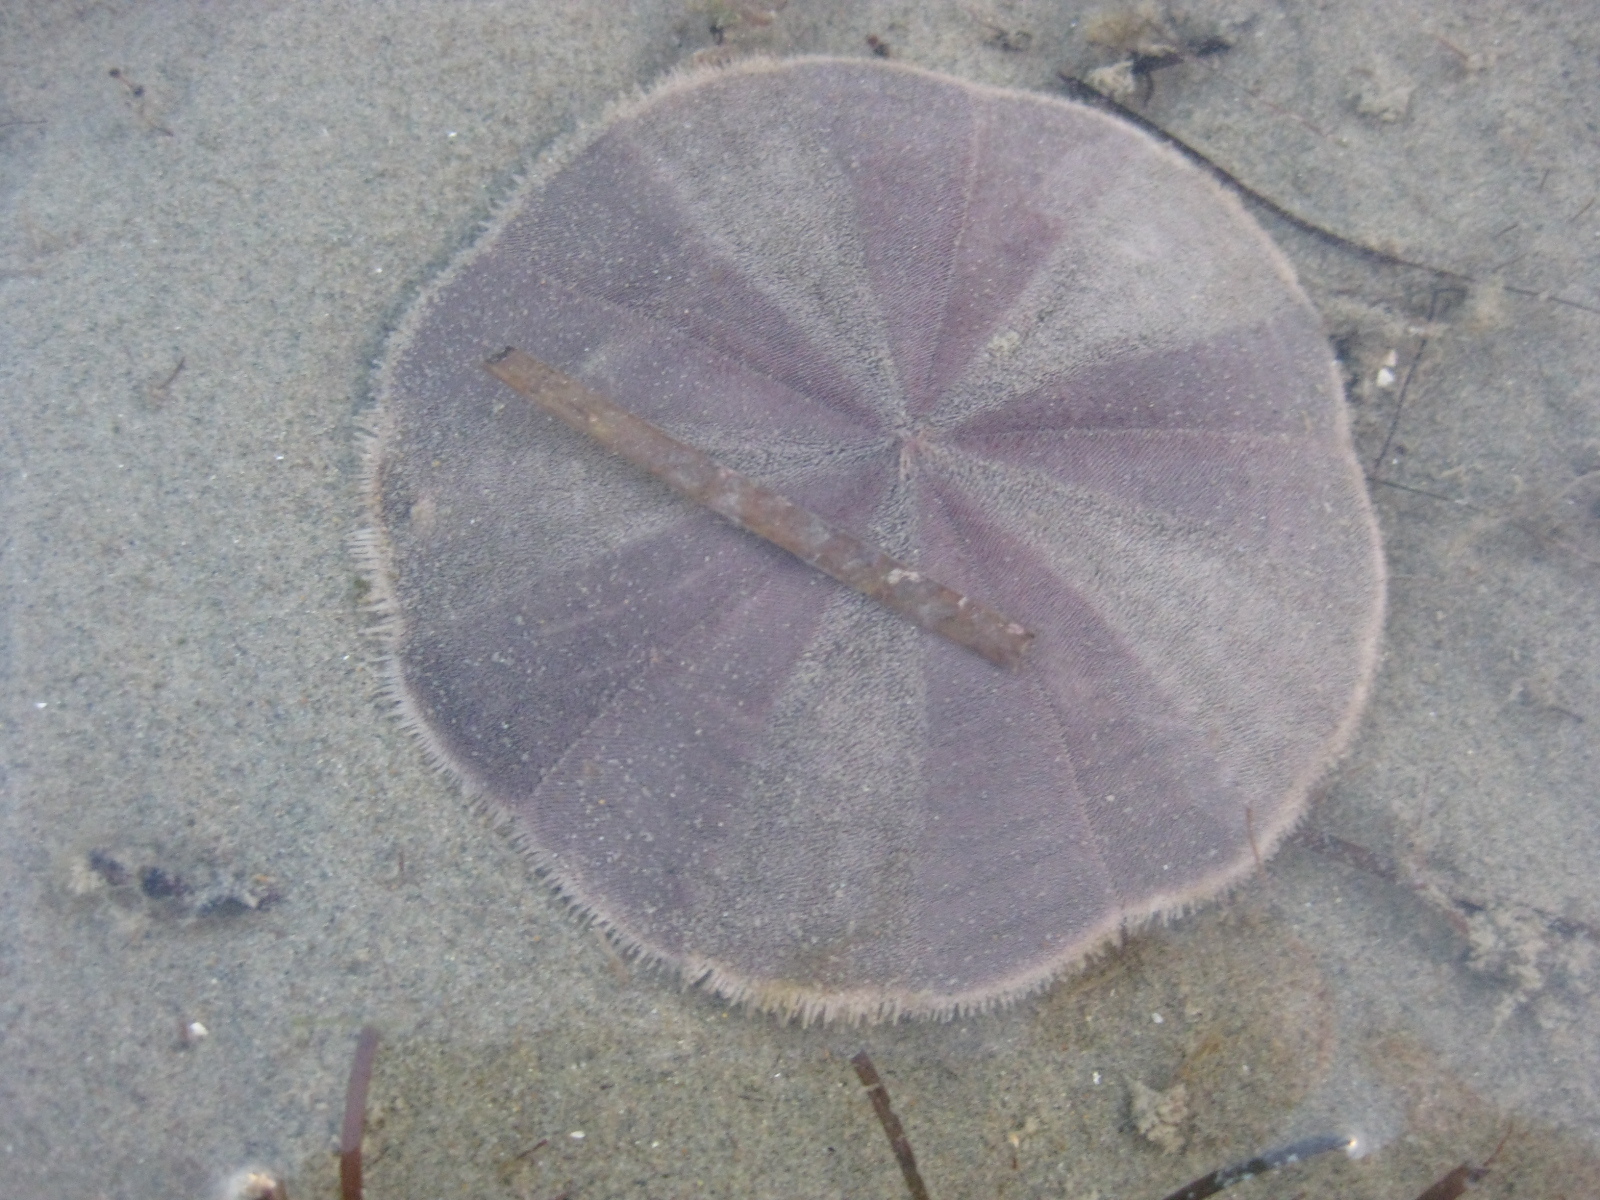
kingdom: Animalia
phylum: Echinodermata
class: Echinoidea
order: Clypeasteroida
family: Clypeasteridae
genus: Fellaster
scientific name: Fellaster zelandiae
